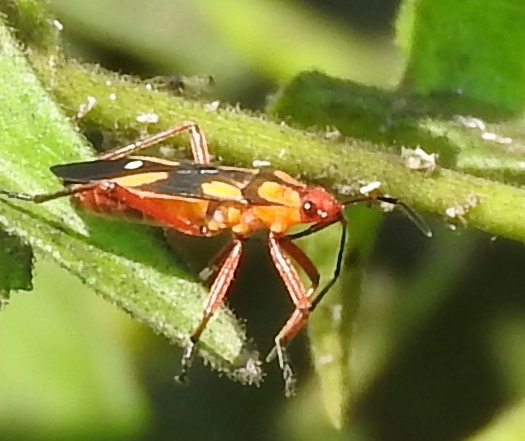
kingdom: Animalia
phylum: Arthropoda
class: Insecta
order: Hemiptera
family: Lygaeidae
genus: Oncopeltus
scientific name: Oncopeltus
